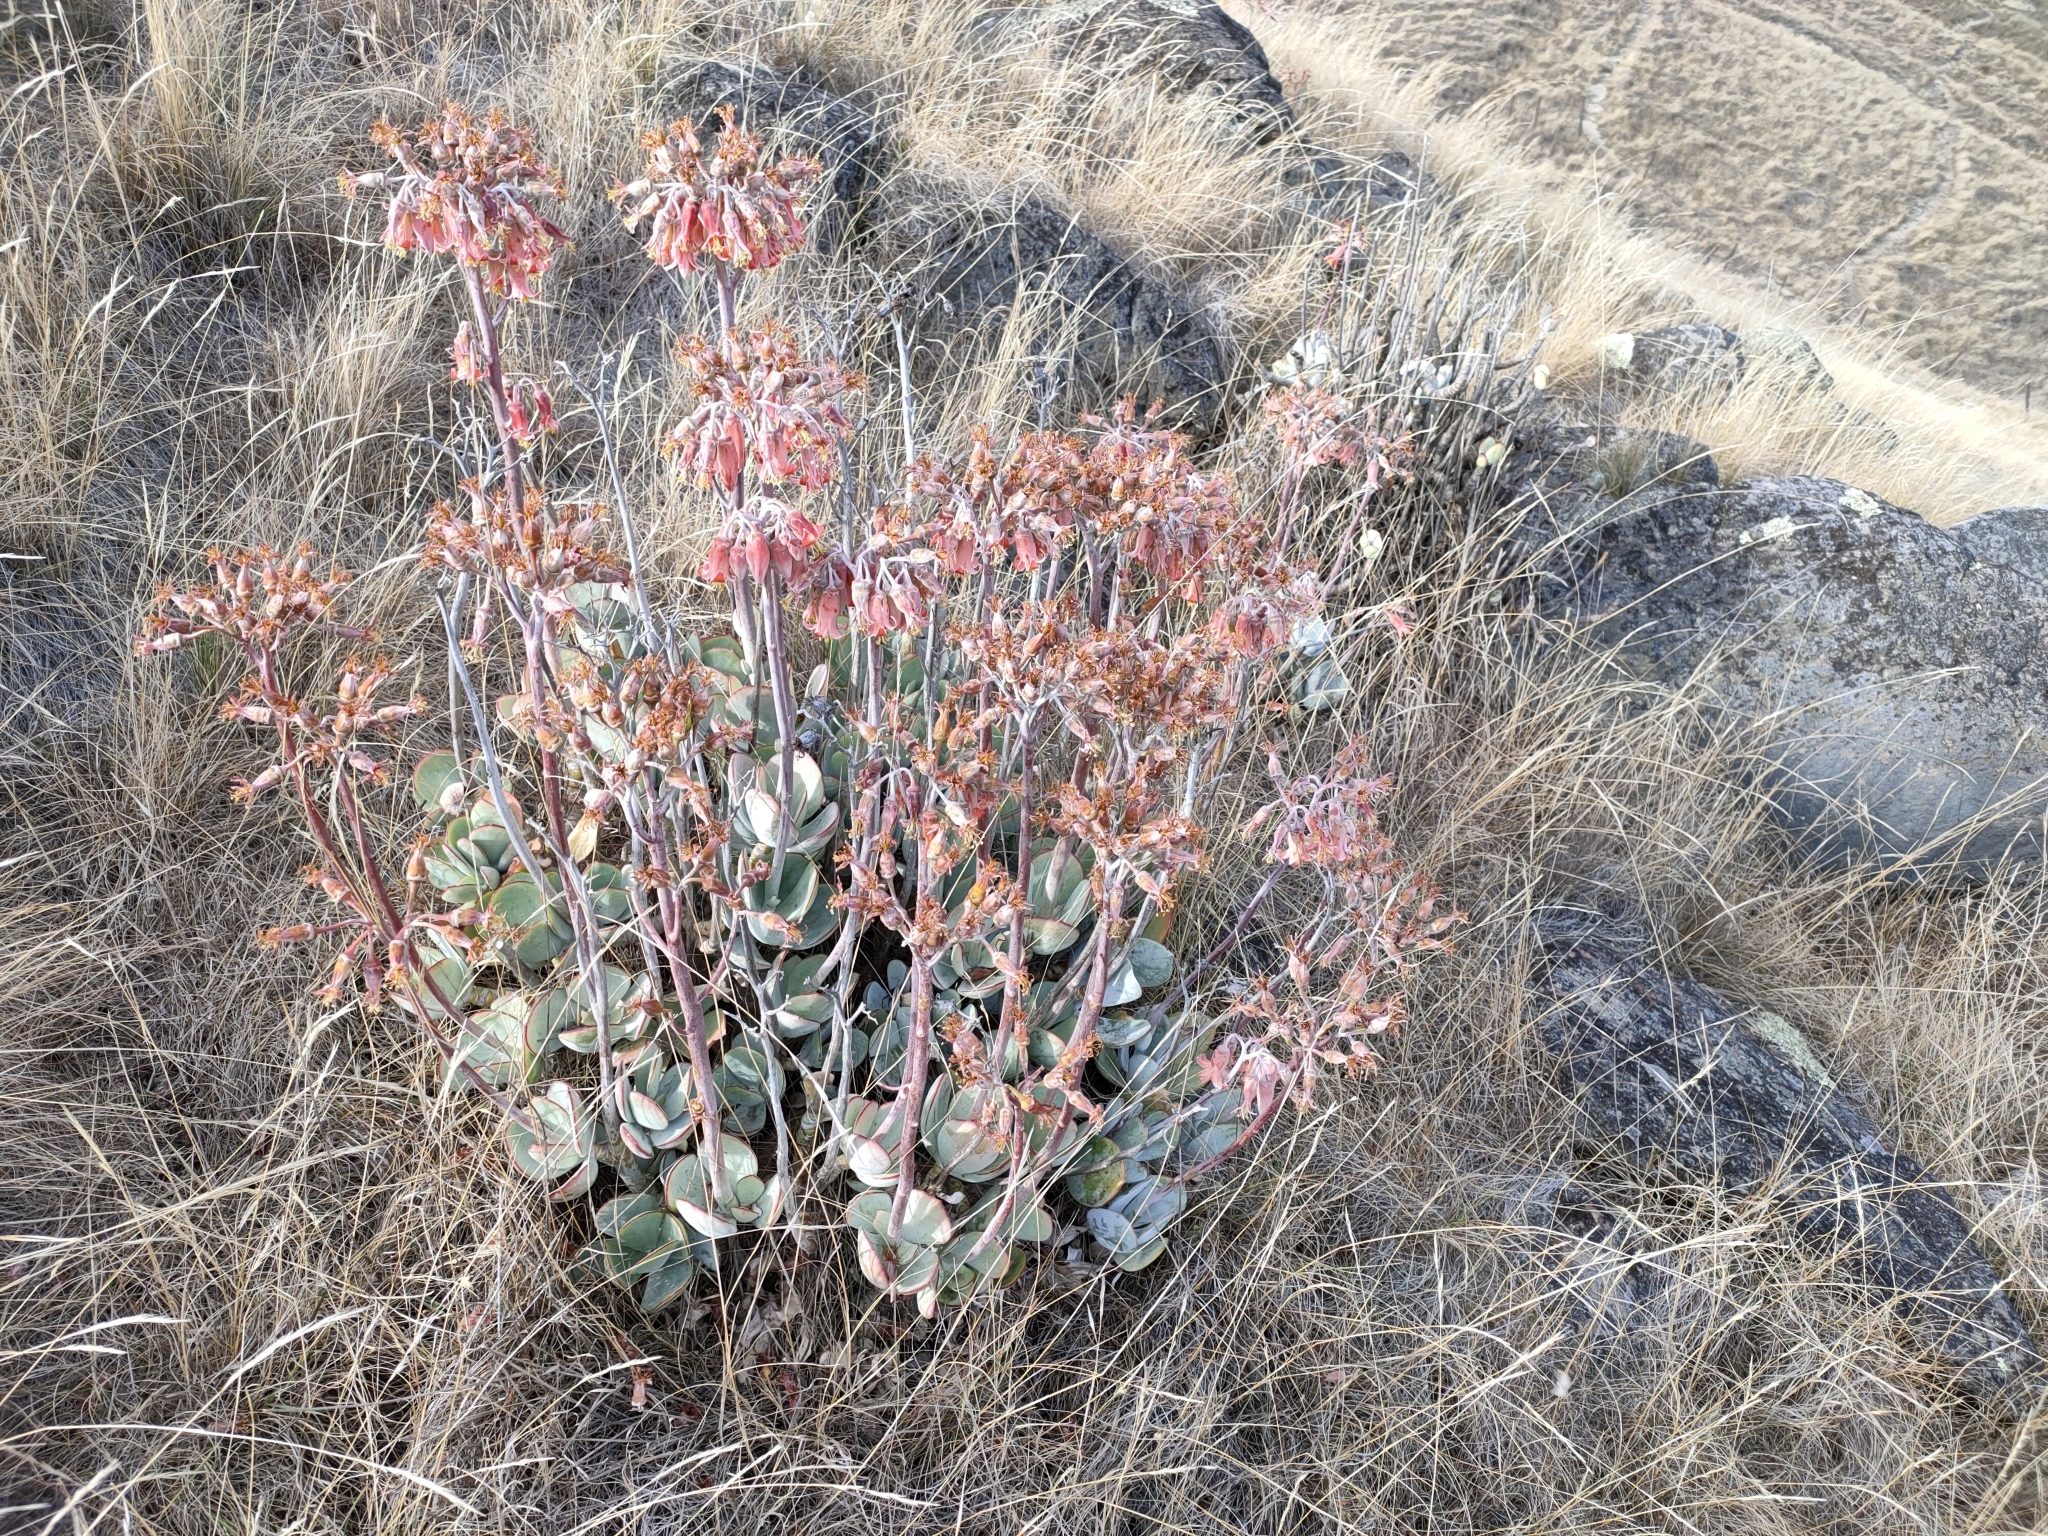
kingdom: Plantae
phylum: Tracheophyta
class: Magnoliopsida
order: Saxifragales
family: Crassulaceae
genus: Cotyledon
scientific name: Cotyledon orbiculata
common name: Pig's ear
